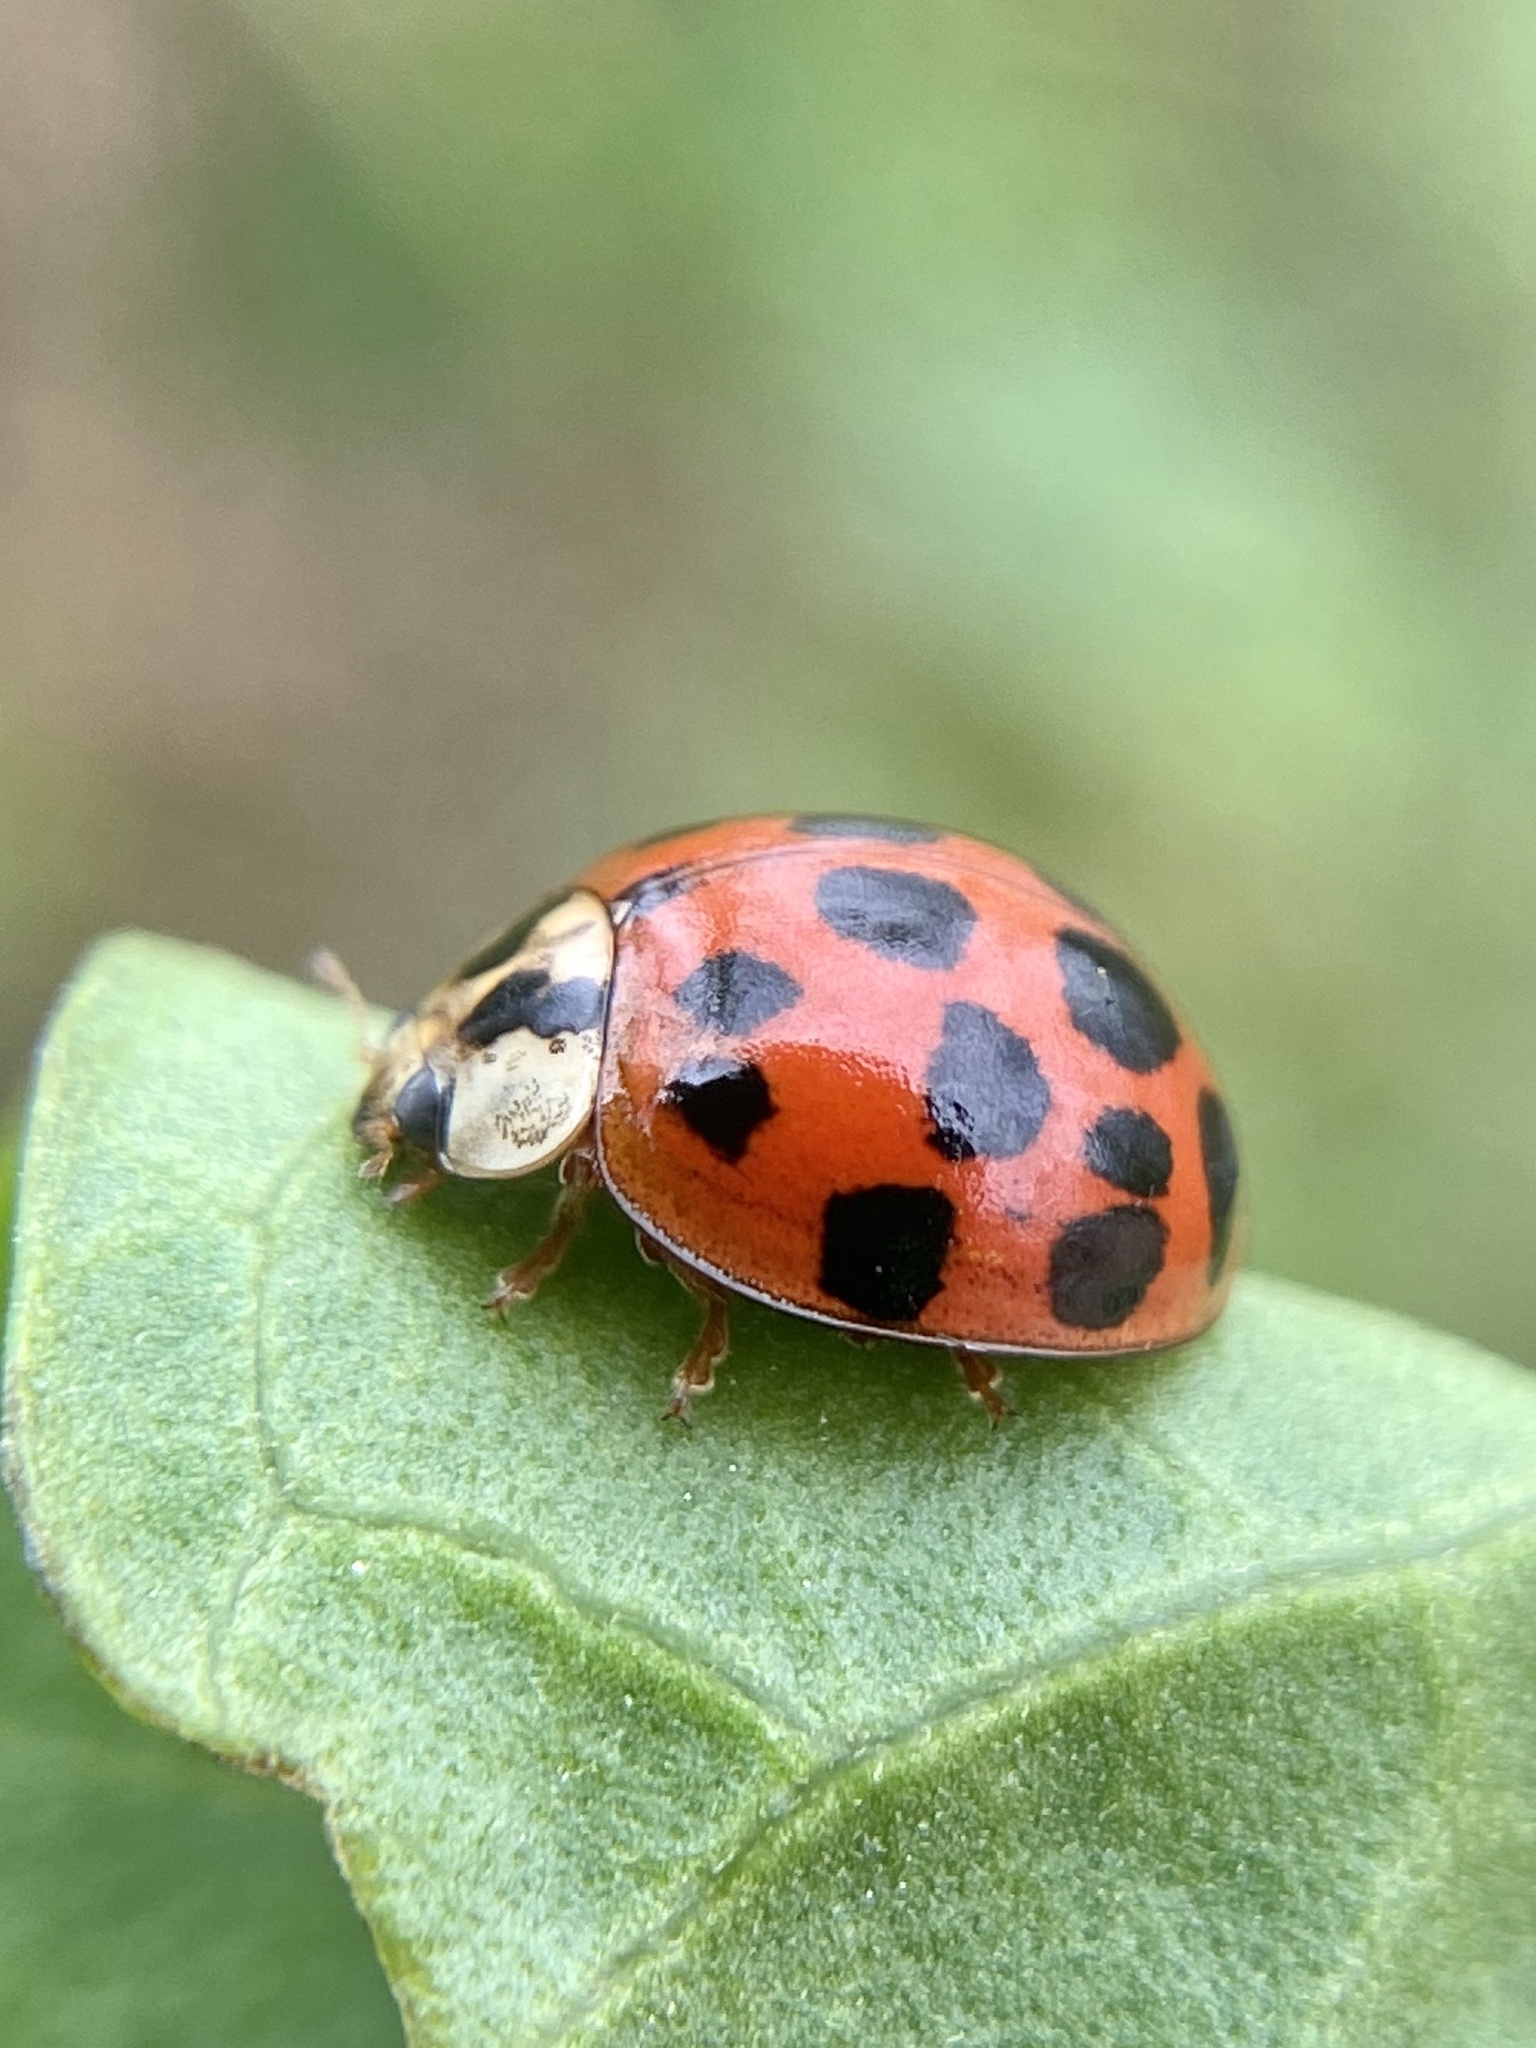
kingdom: Animalia
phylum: Arthropoda
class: Insecta
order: Coleoptera
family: Coccinellidae
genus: Harmonia
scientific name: Harmonia axyridis
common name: Harlequin ladybird
